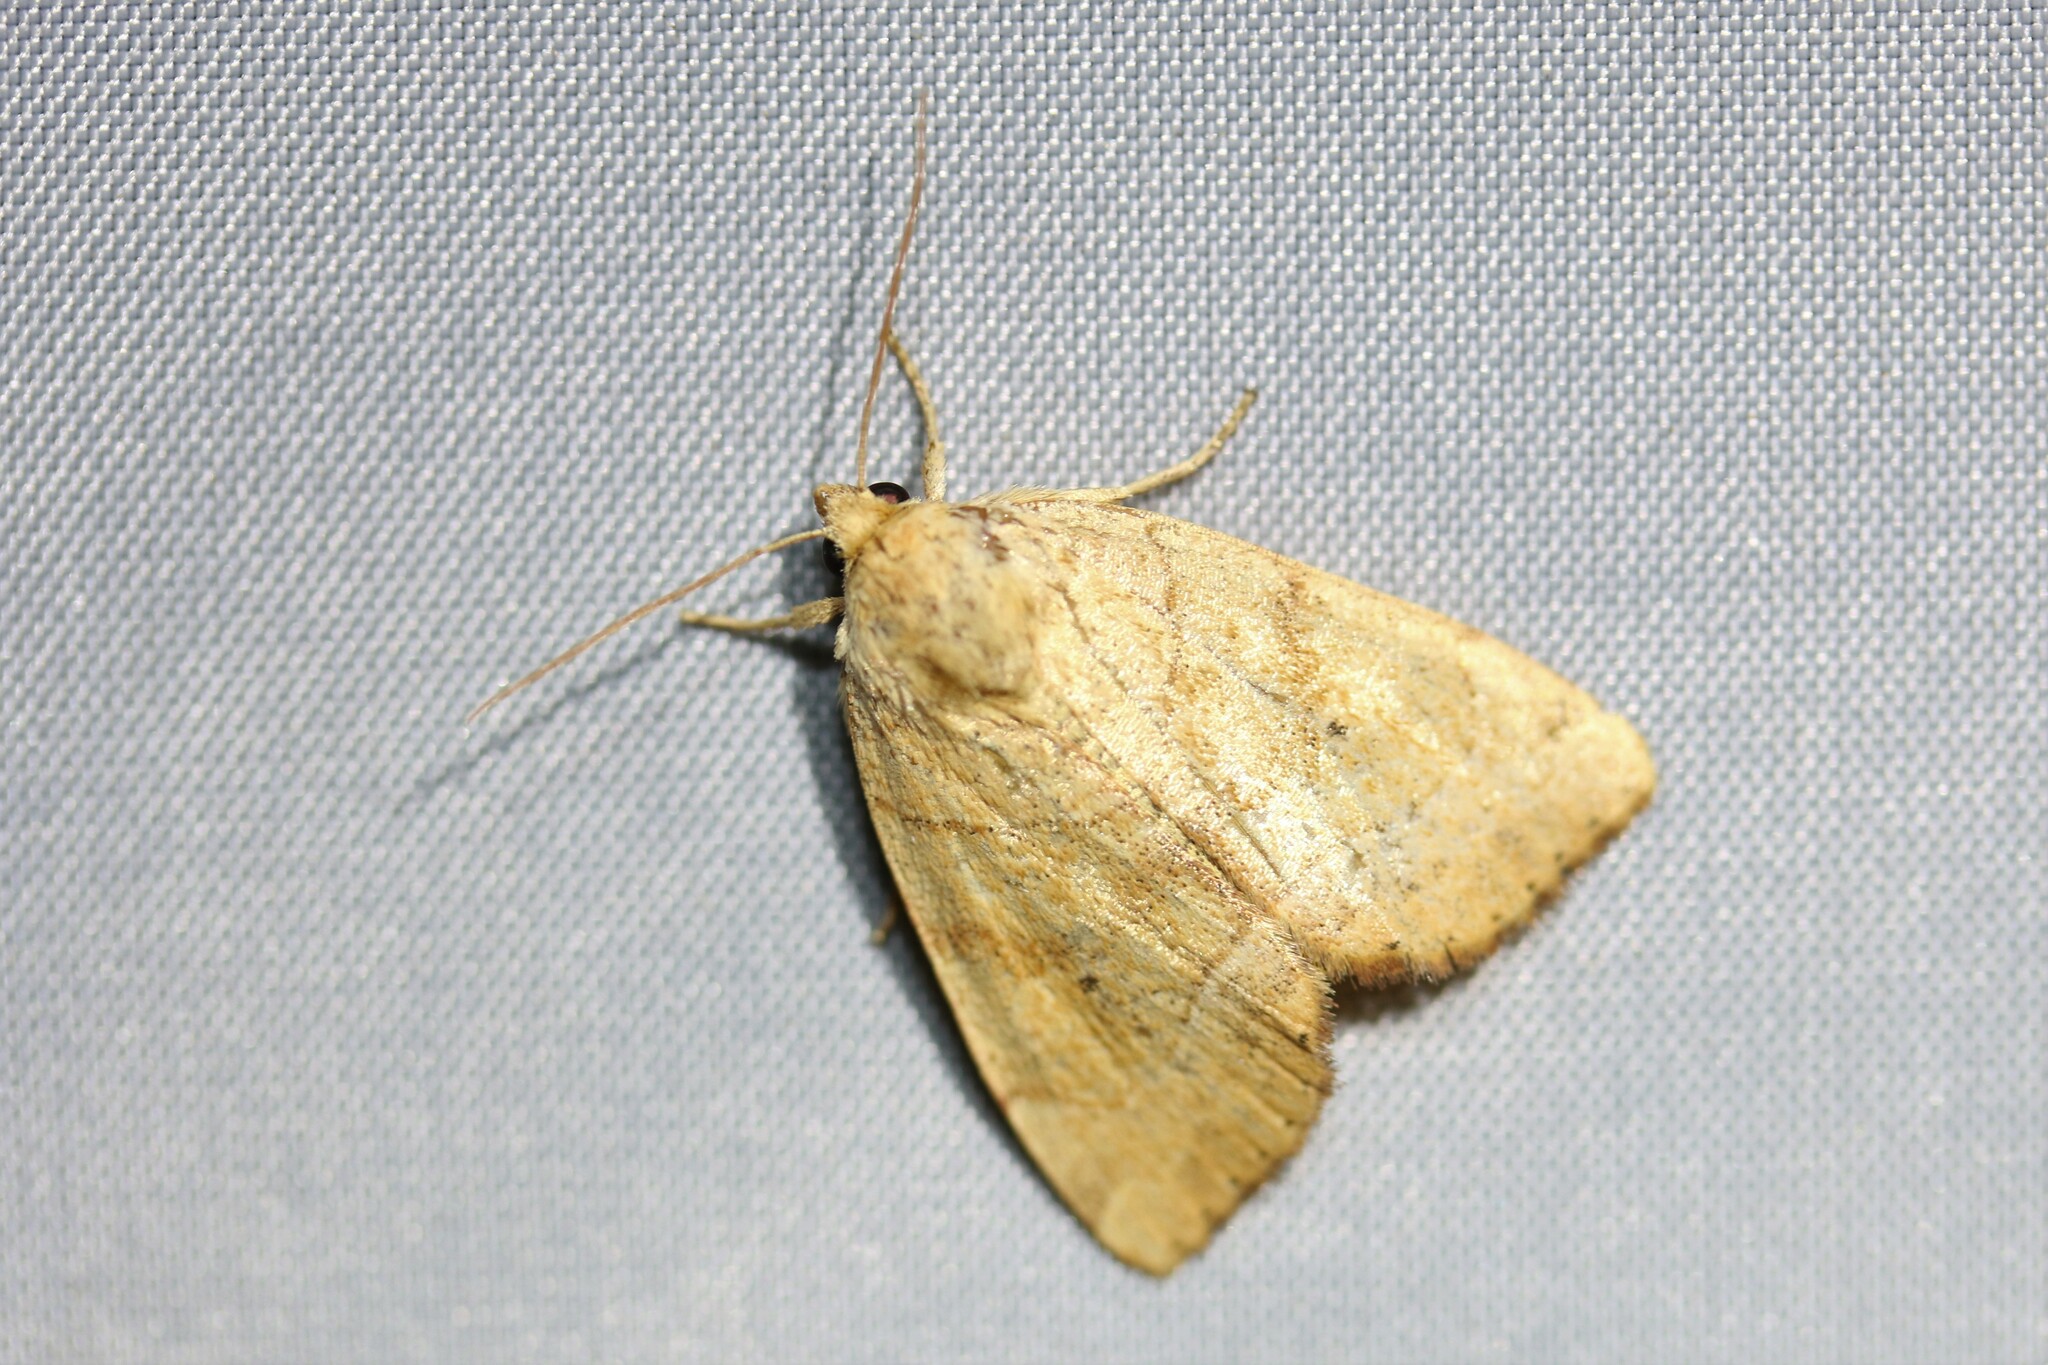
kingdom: Animalia
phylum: Arthropoda
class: Insecta
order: Lepidoptera
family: Noctuidae
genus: Cosmia
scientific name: Cosmia trapezina
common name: Dun-bar
